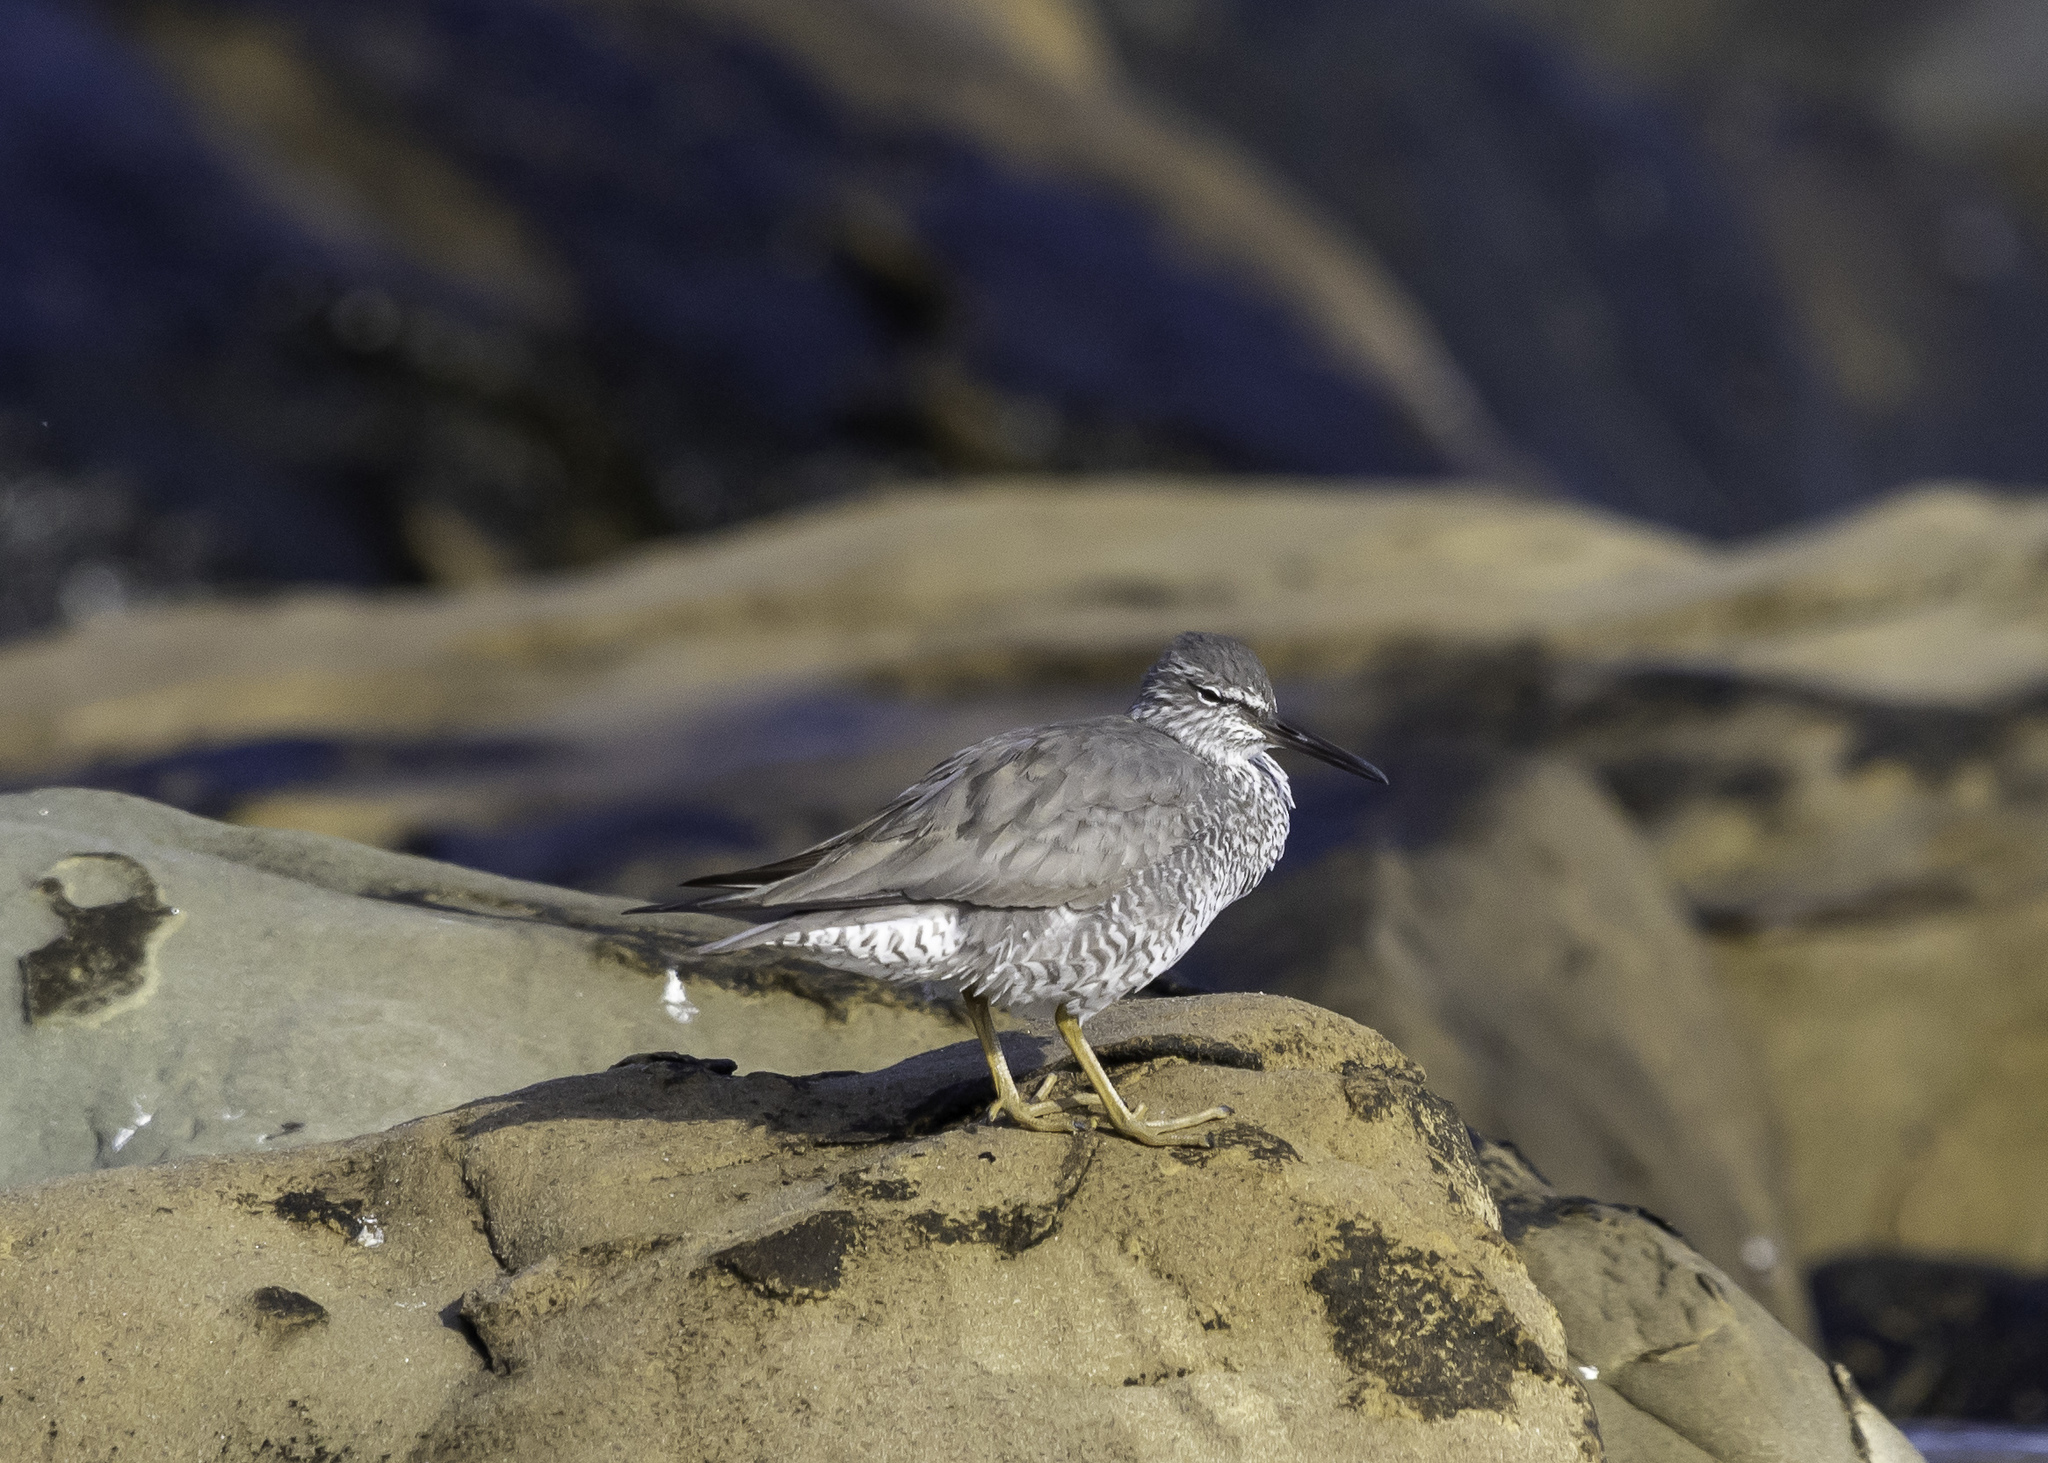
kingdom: Animalia
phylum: Chordata
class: Aves
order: Charadriiformes
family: Scolopacidae
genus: Tringa
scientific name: Tringa incana
